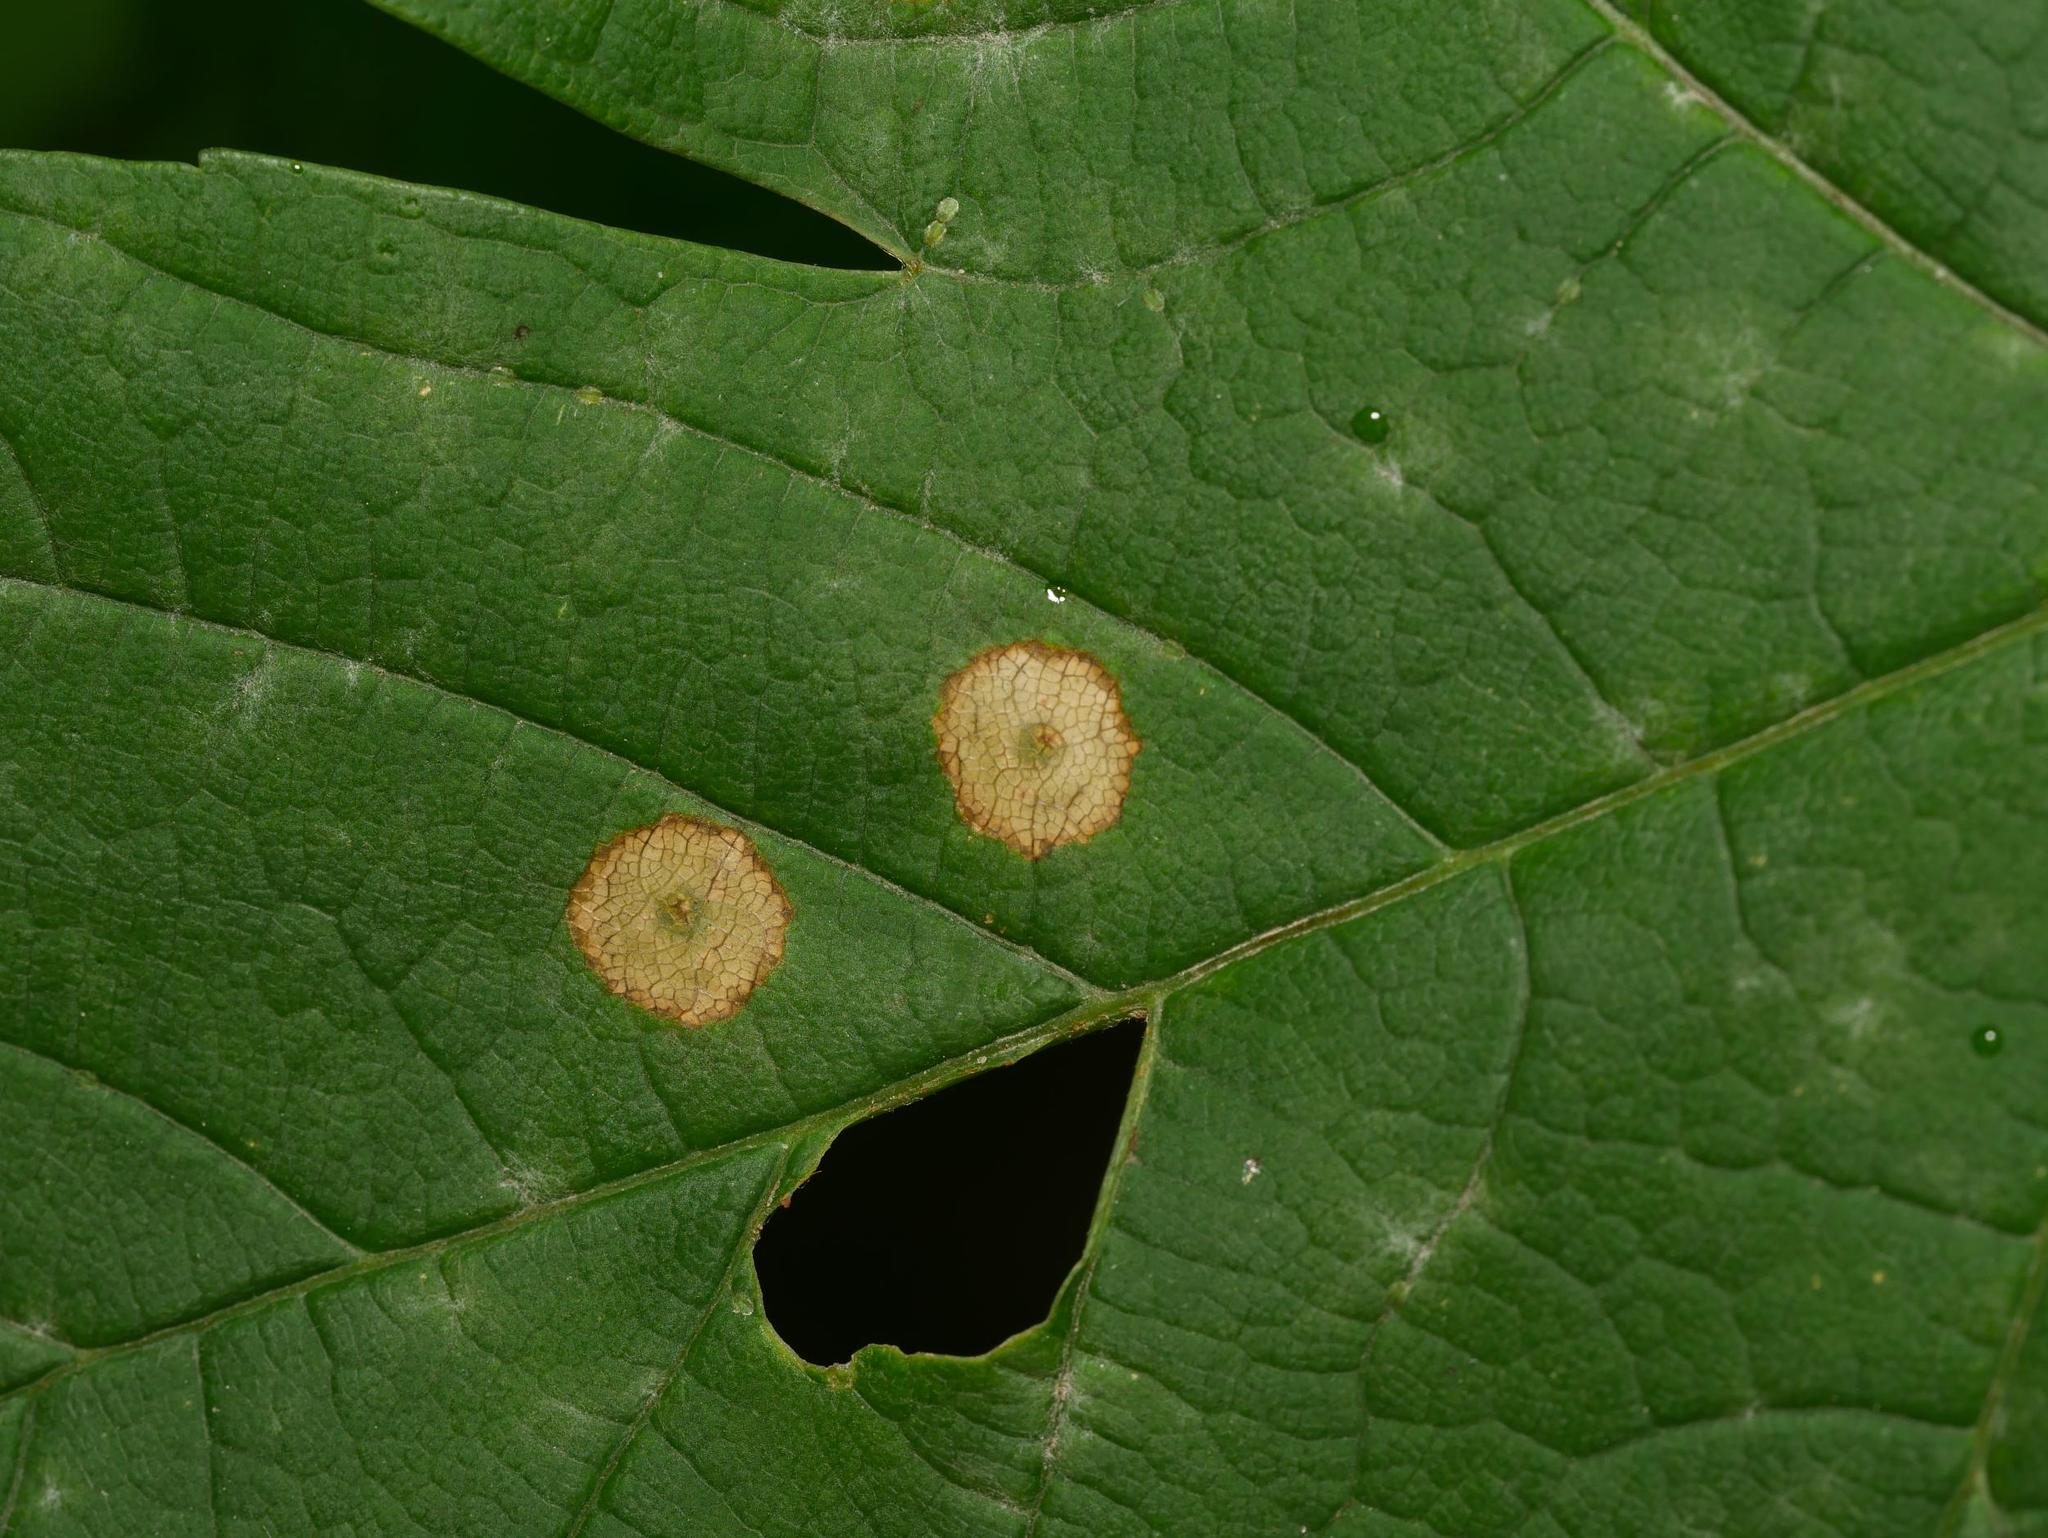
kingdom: Animalia
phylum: Arthropoda
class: Insecta
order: Diptera
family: Cecidomyiidae
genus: Drisina
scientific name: Drisina glutinosa
